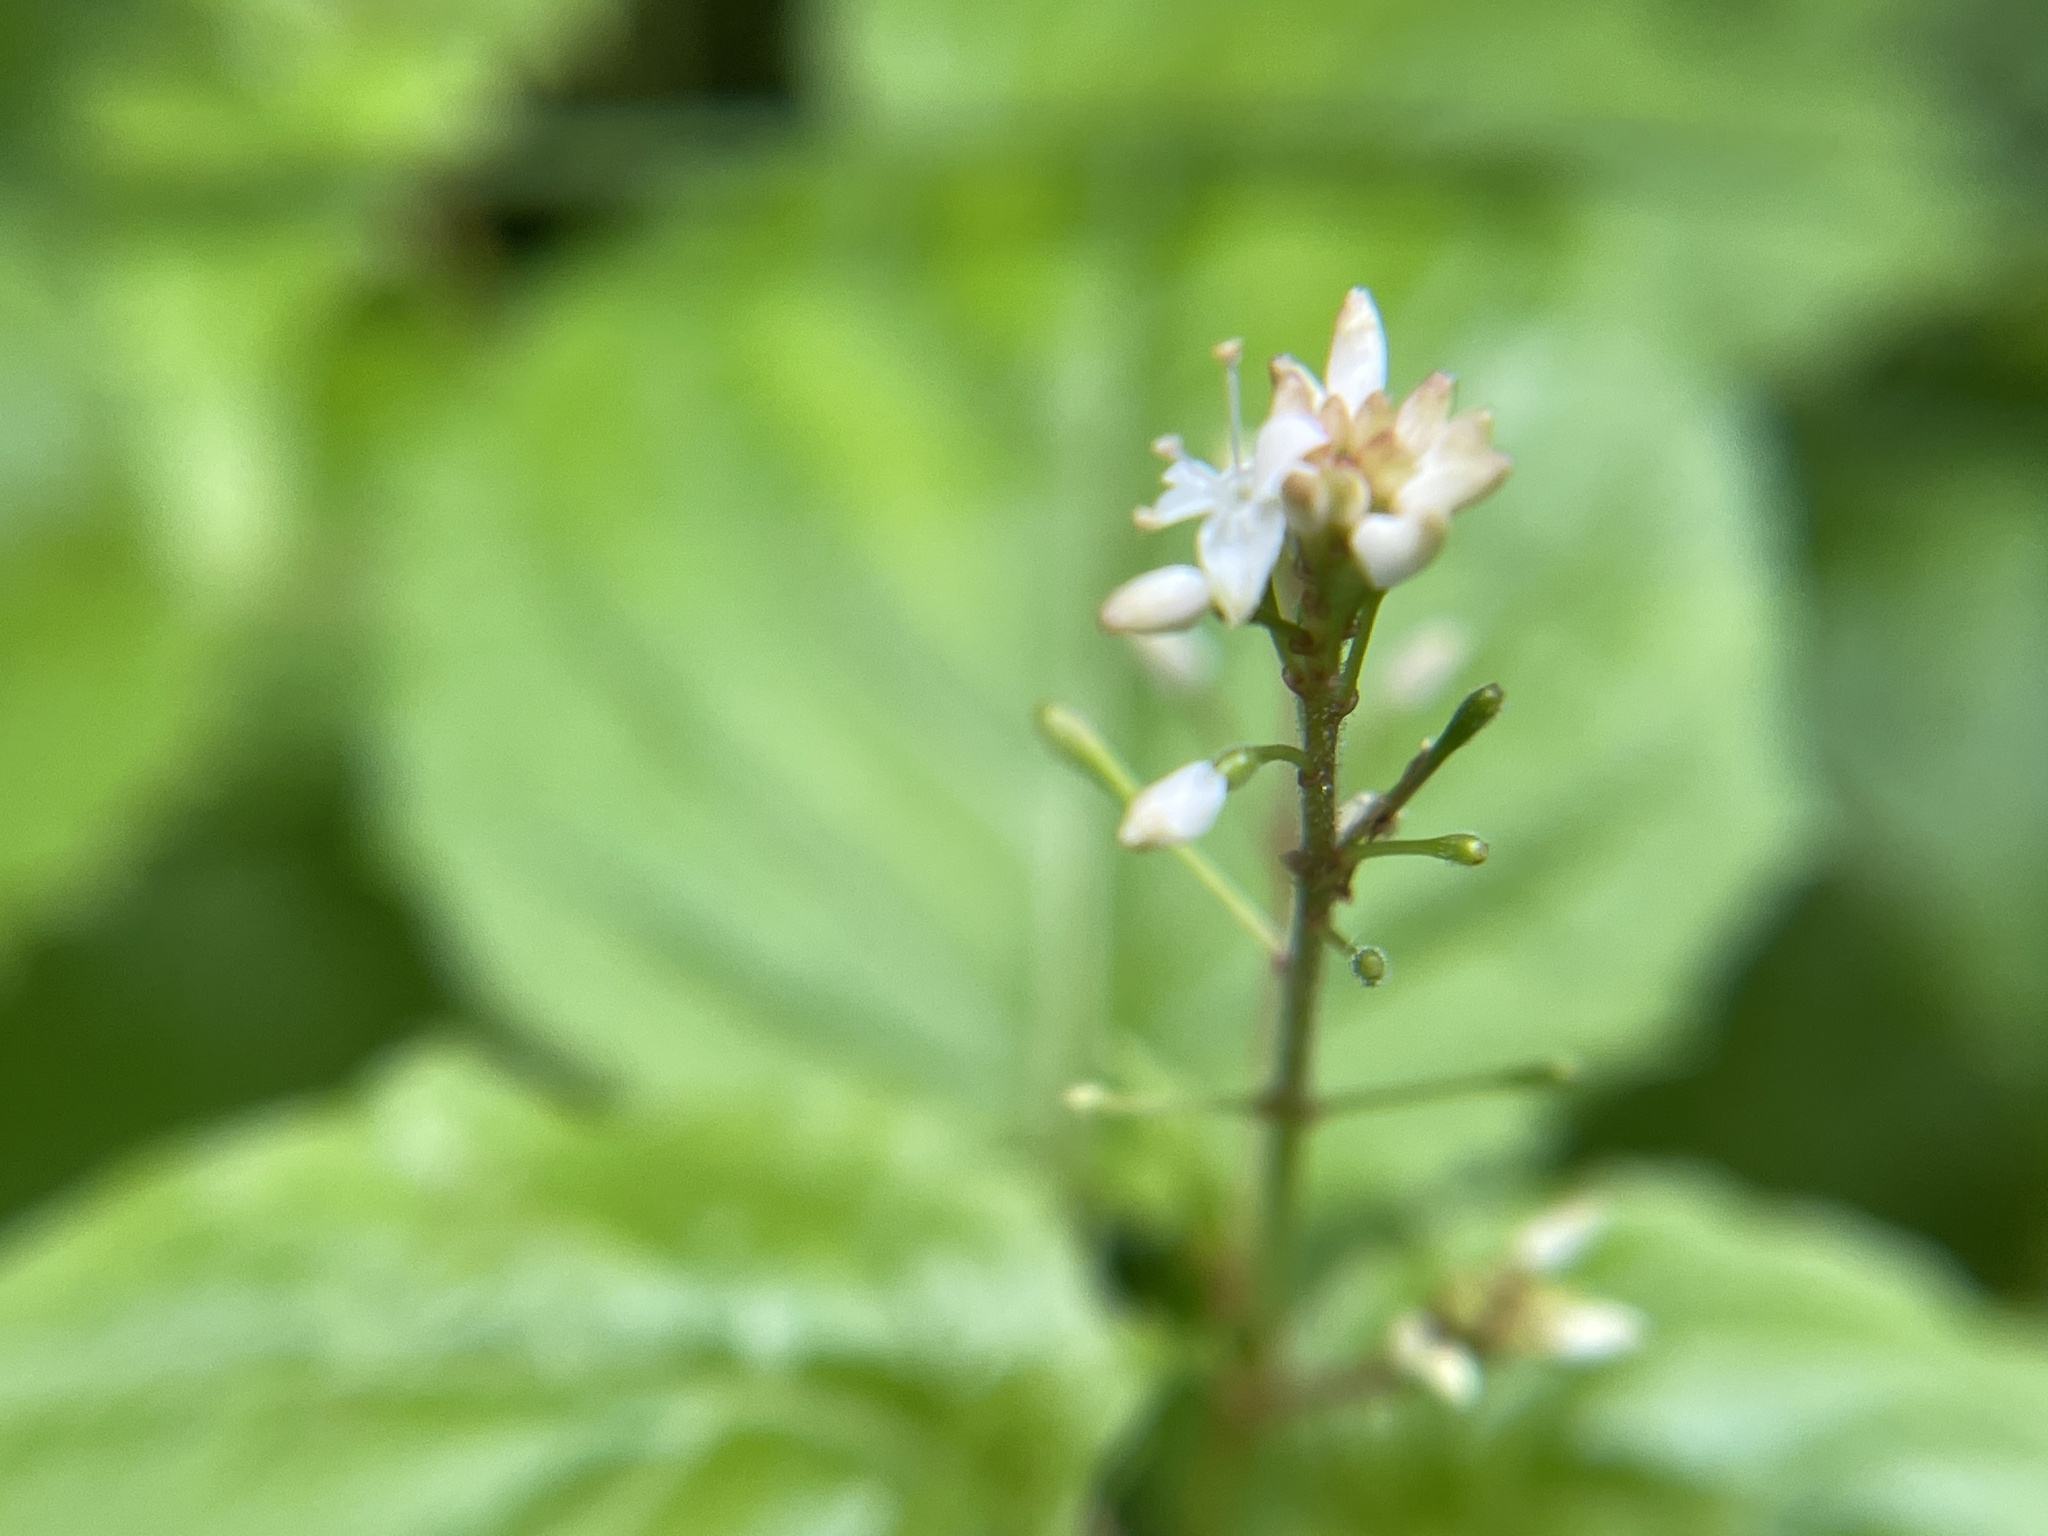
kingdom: Plantae
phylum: Tracheophyta
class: Magnoliopsida
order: Myrtales
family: Onagraceae
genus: Circaea
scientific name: Circaea alpina
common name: Alpine enchanter's-nightshade
